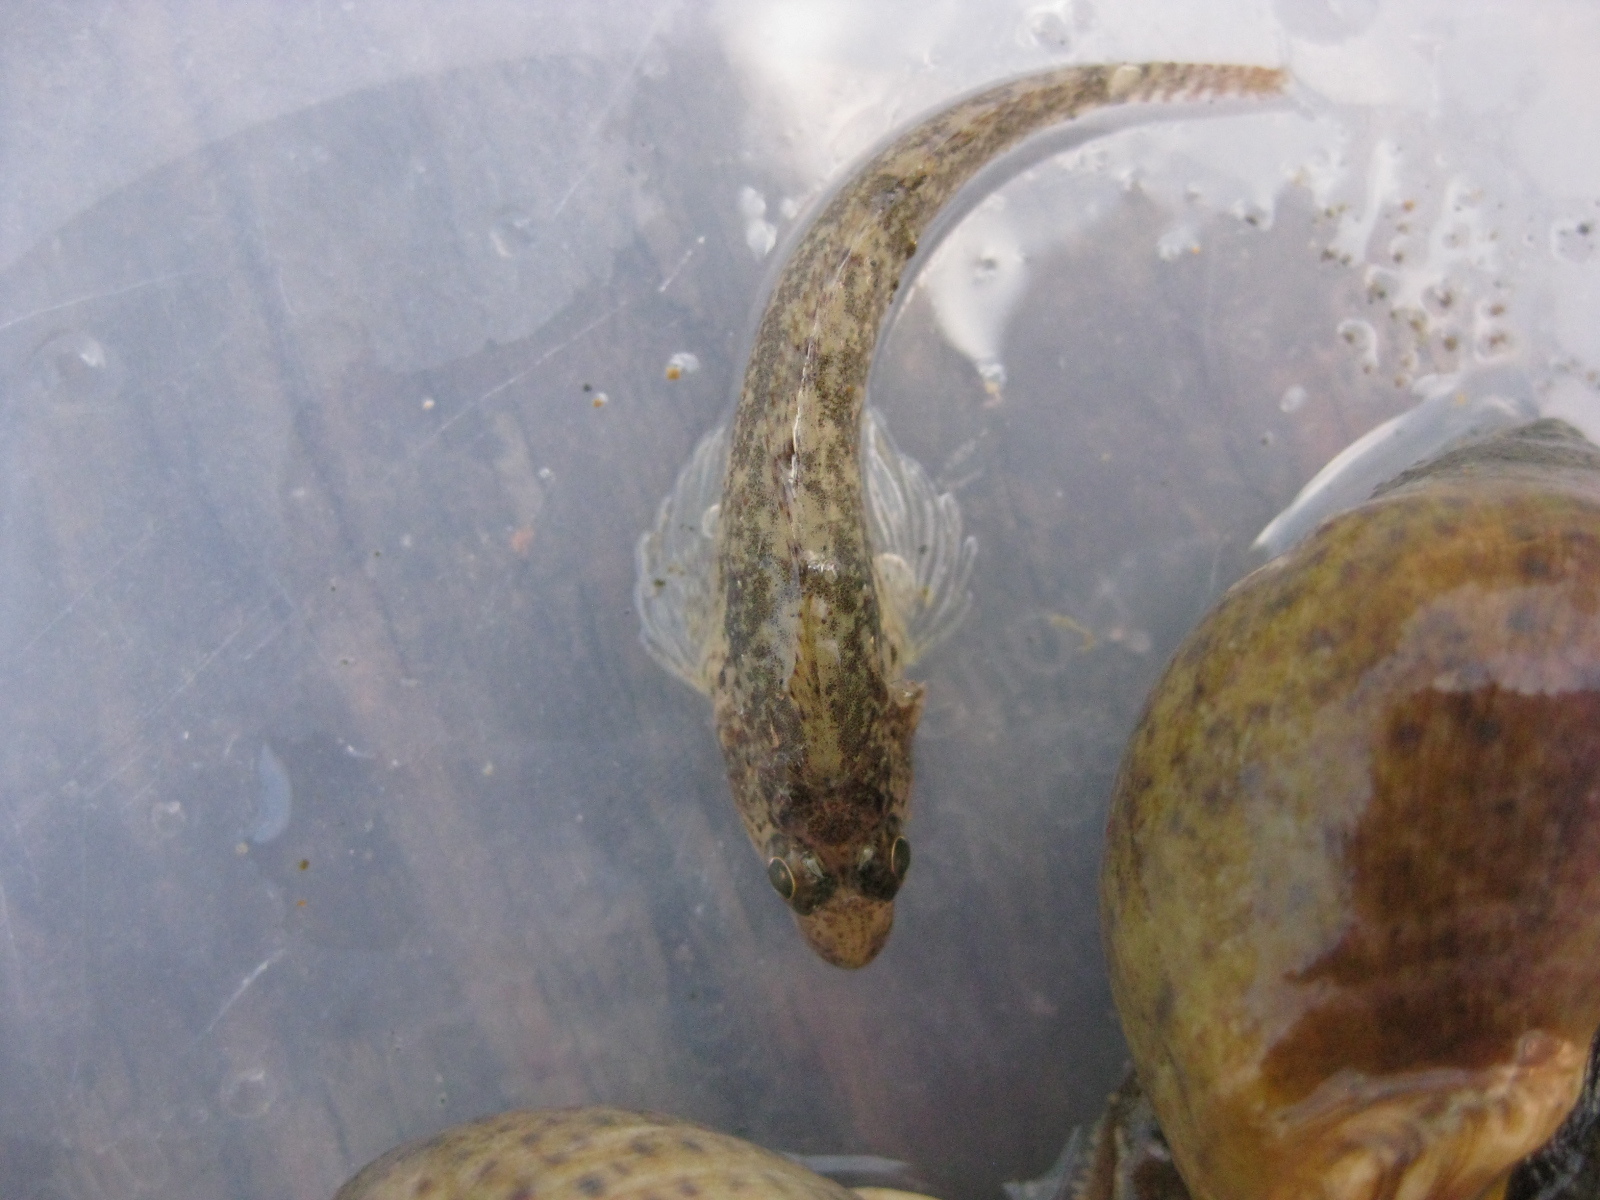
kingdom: Animalia
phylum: Chordata
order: Perciformes
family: Tripterygiidae
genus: Forsterygion
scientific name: Forsterygion
